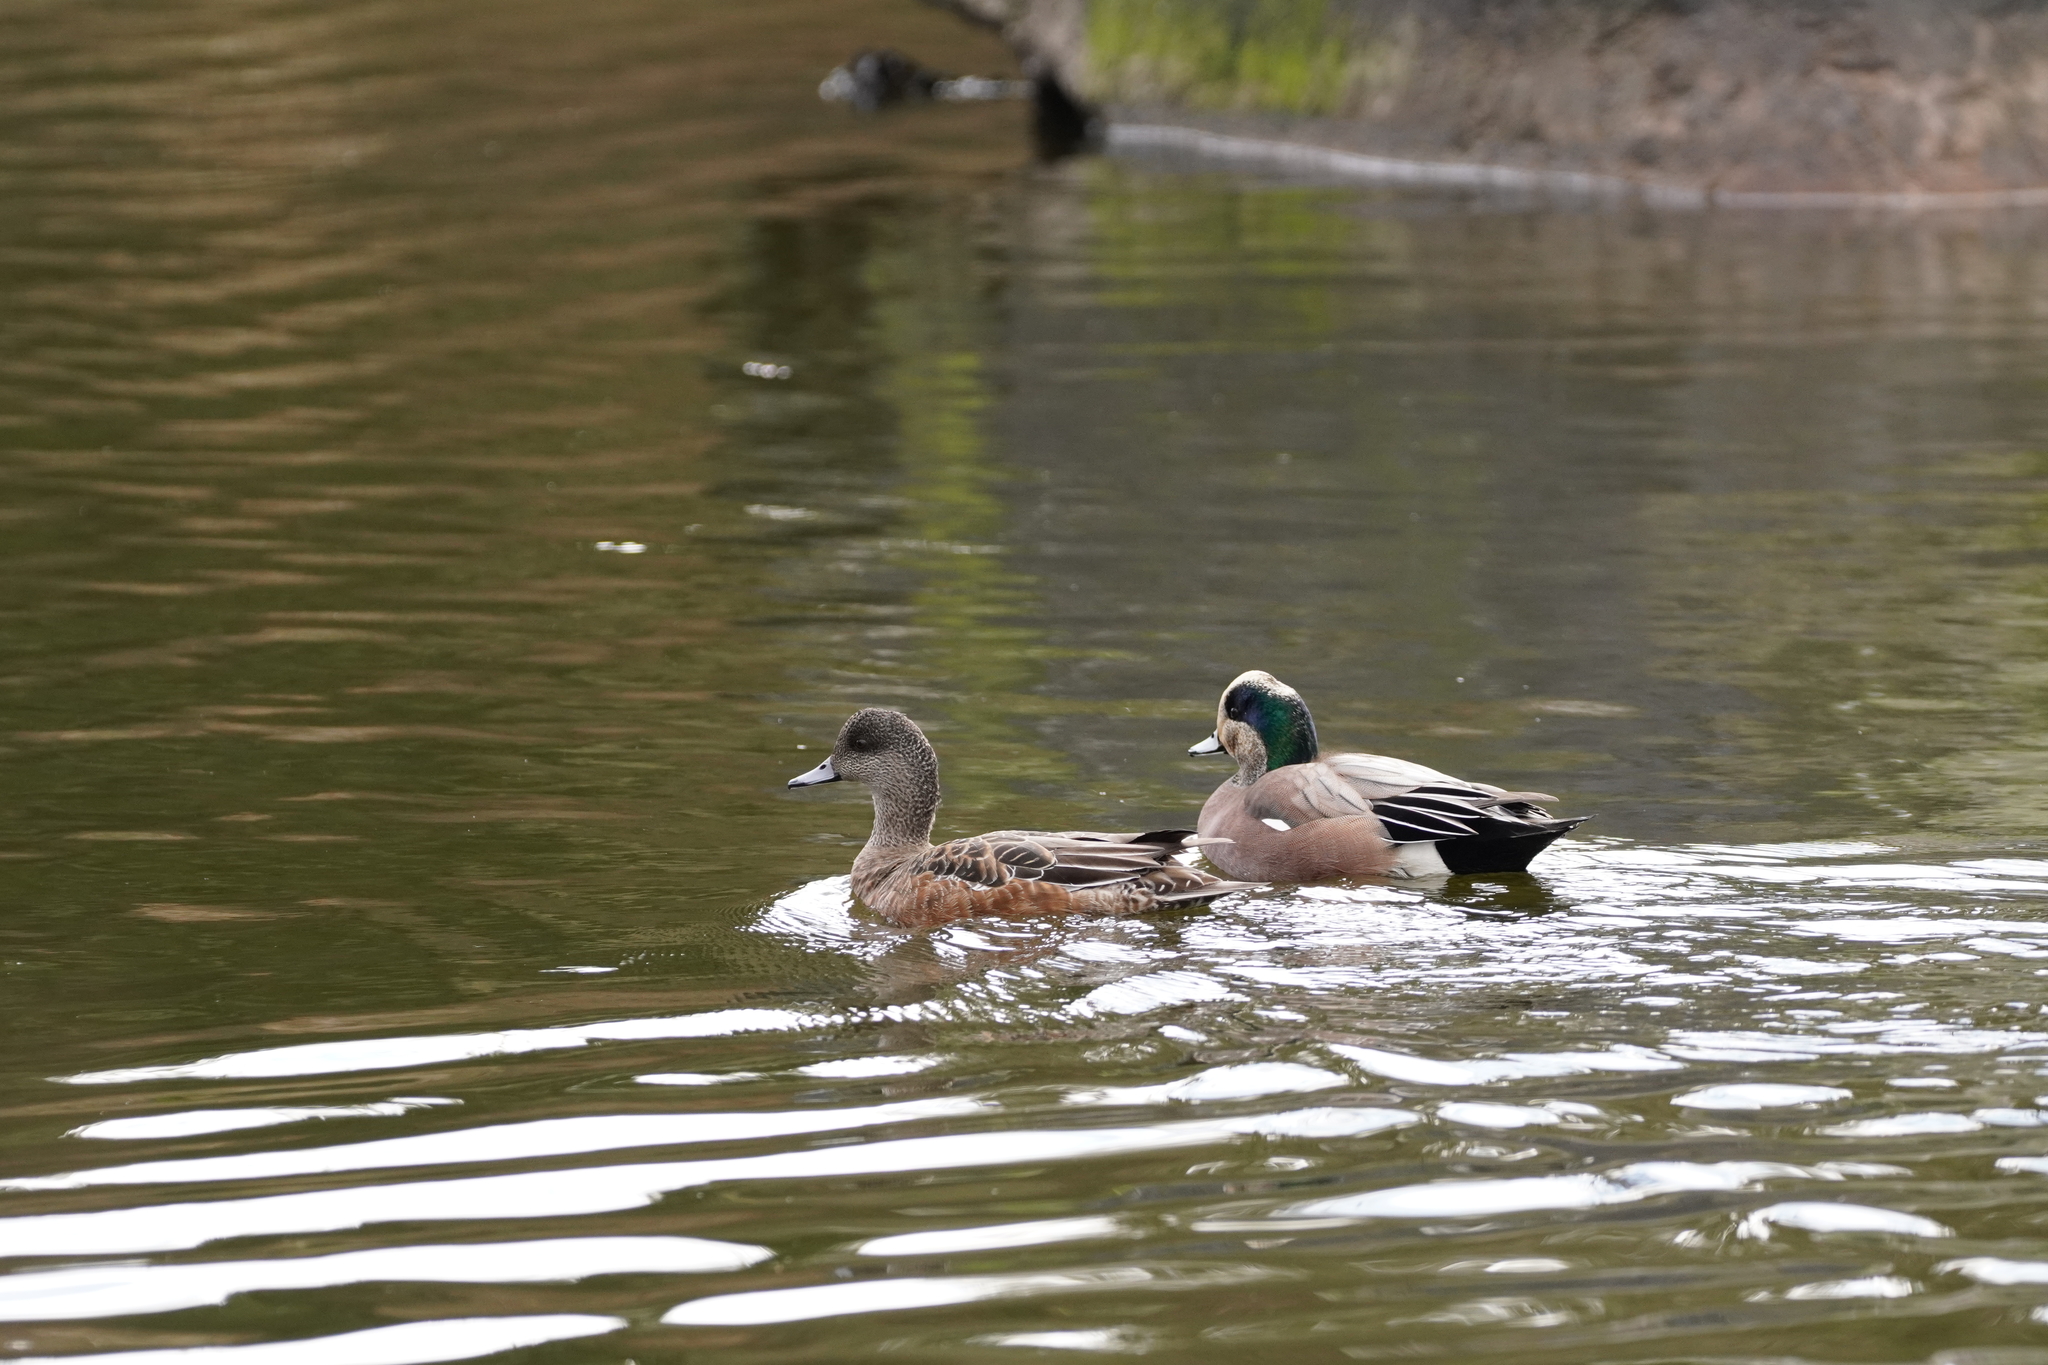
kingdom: Animalia
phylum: Chordata
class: Aves
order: Anseriformes
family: Anatidae
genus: Mareca
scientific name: Mareca americana
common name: American wigeon
